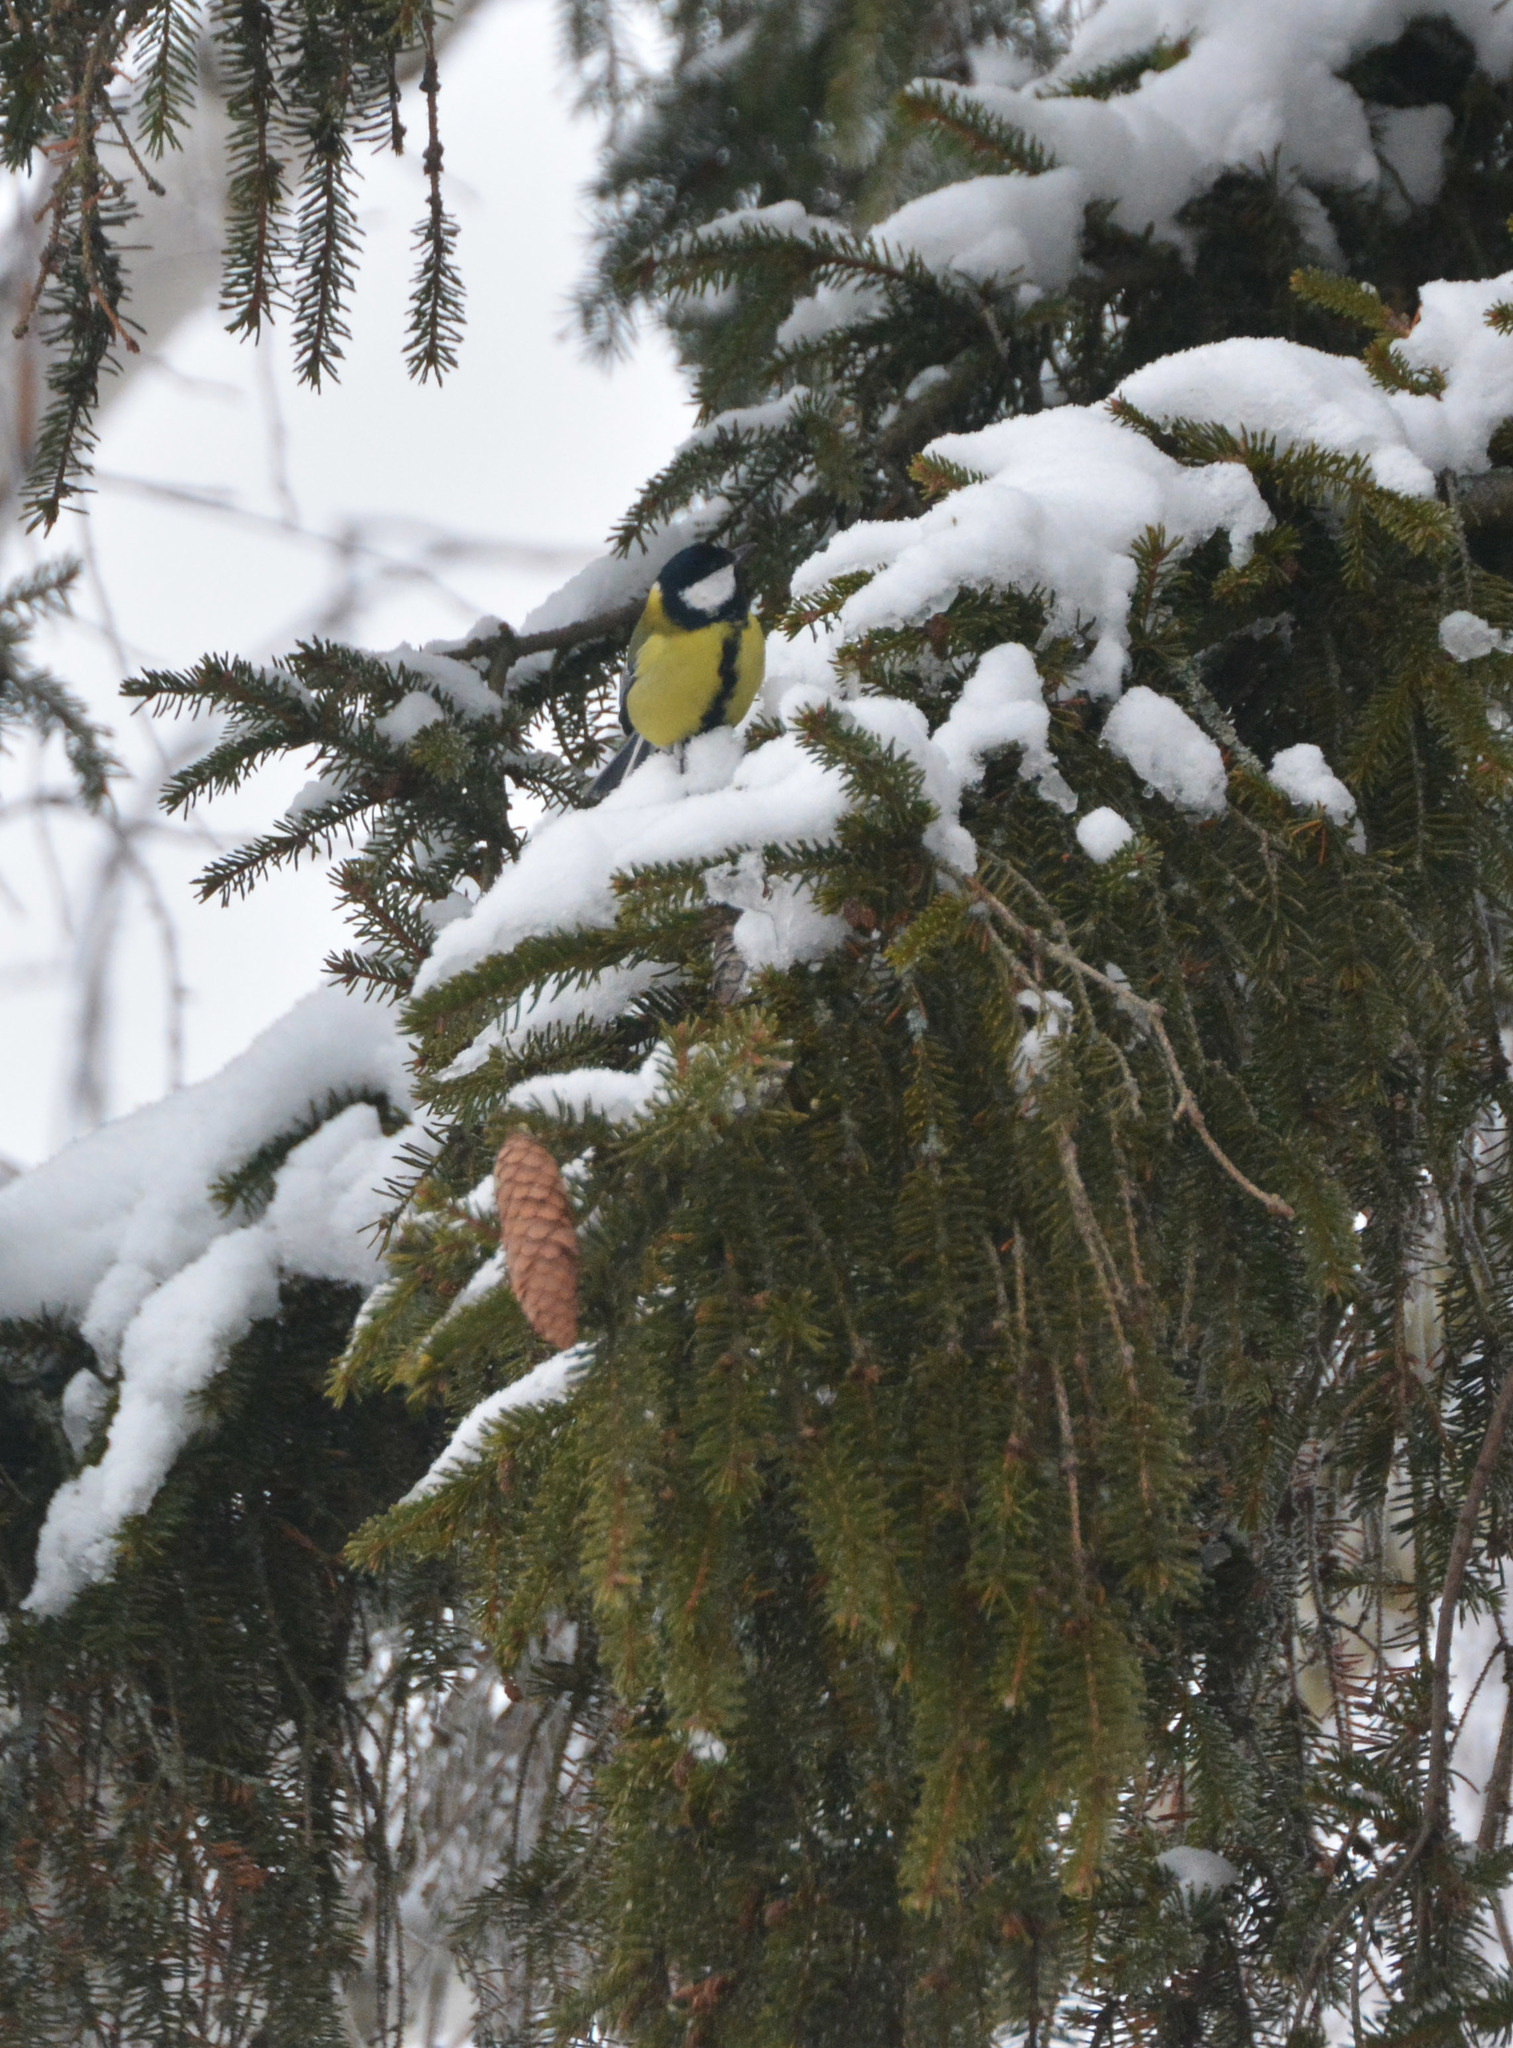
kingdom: Animalia
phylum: Chordata
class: Aves
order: Passeriformes
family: Paridae
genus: Parus
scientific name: Parus major
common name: Great tit
